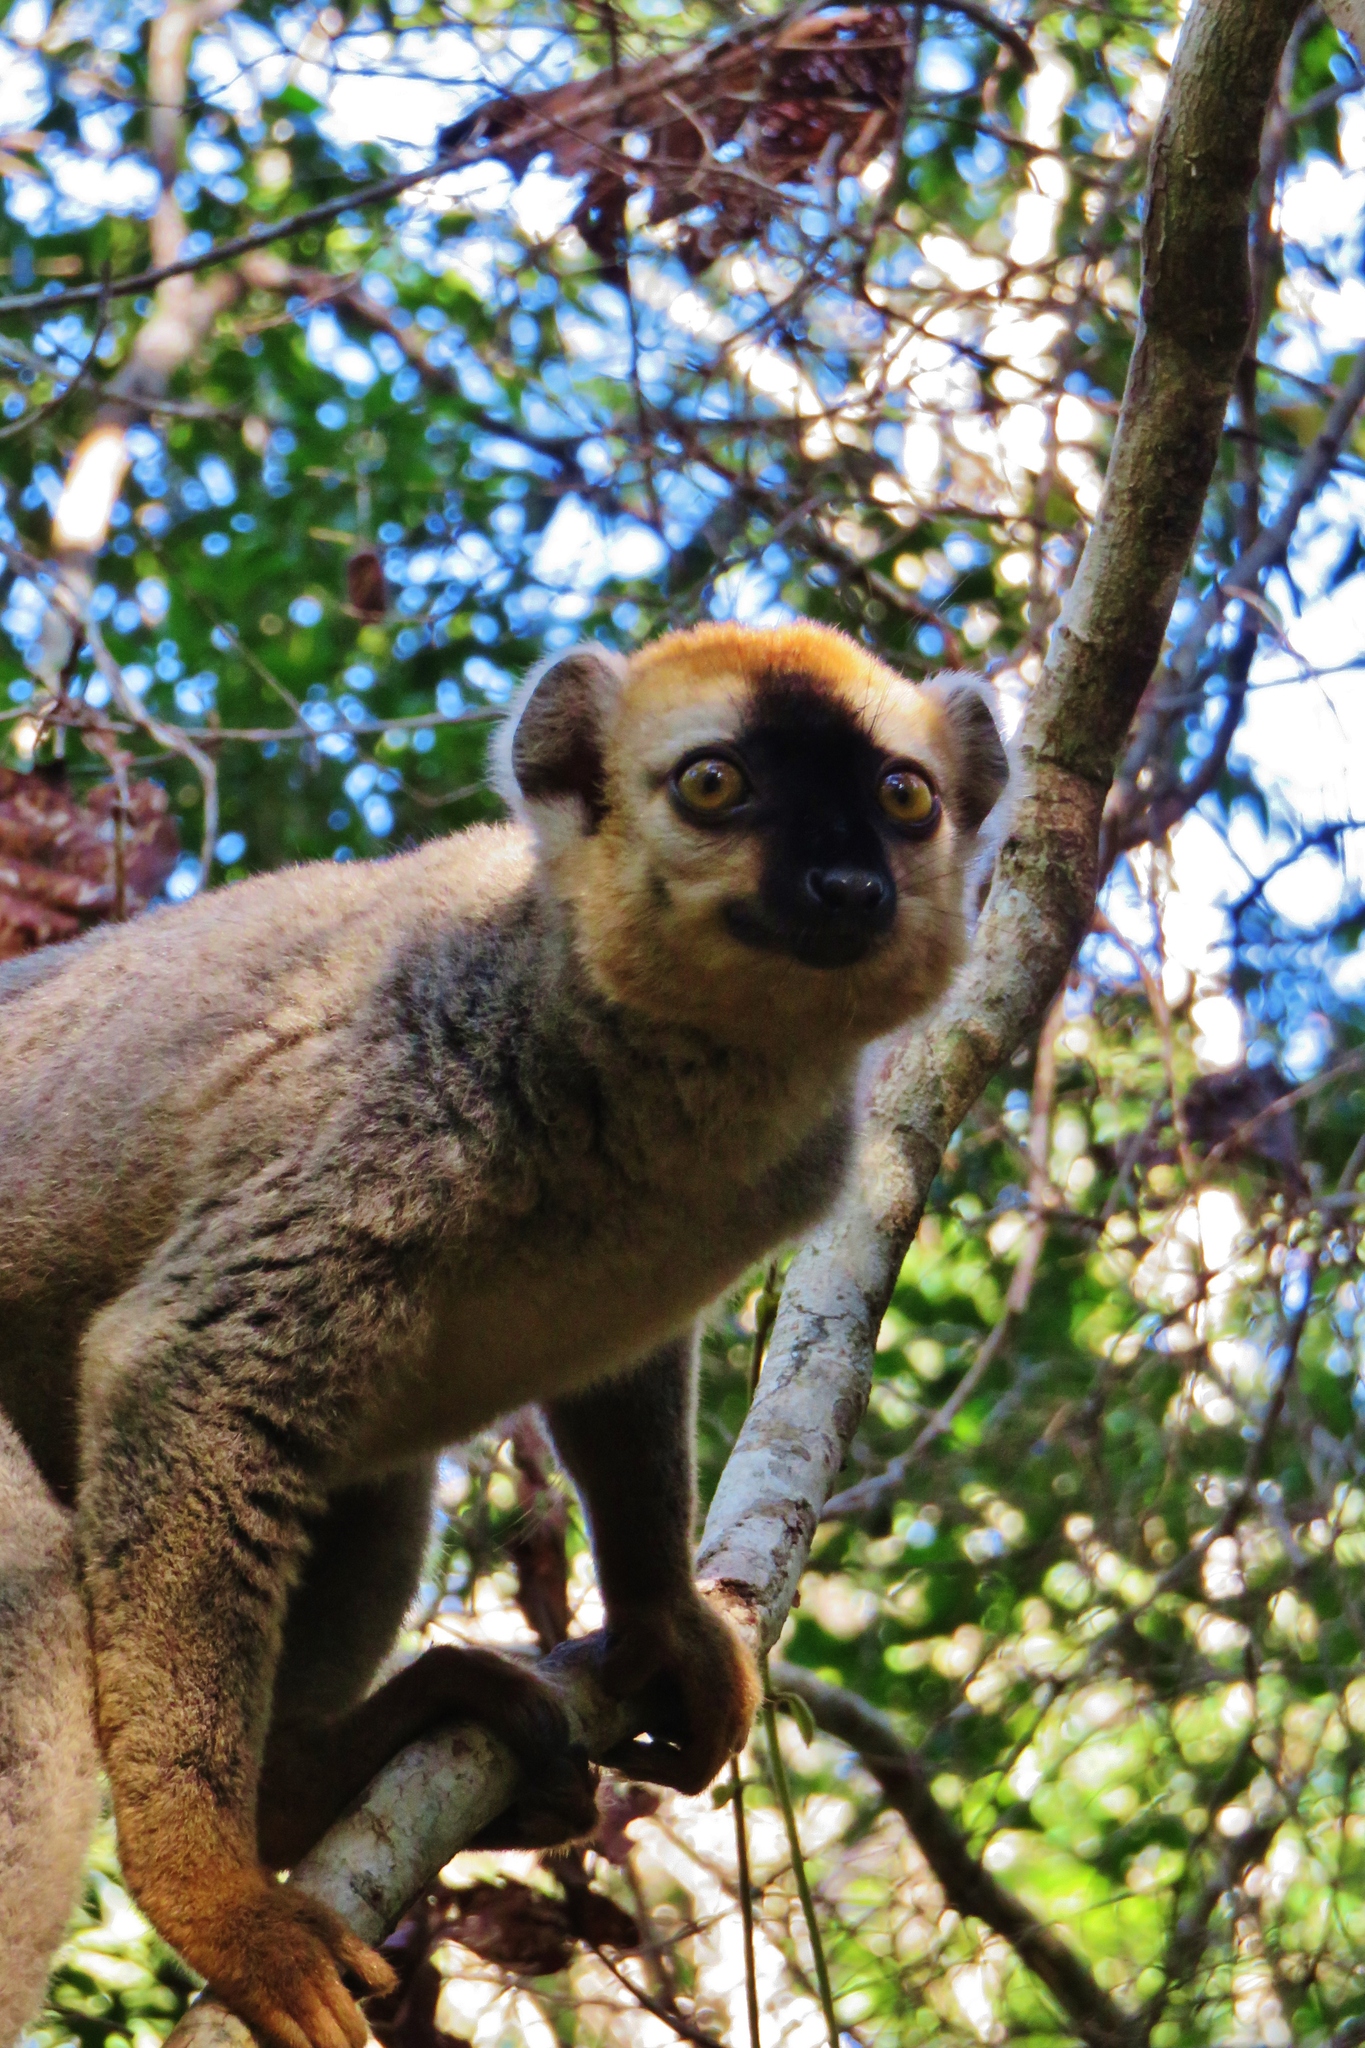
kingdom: Animalia
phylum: Chordata
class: Mammalia
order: Primates
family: Lemuridae
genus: Eulemur
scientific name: Eulemur rufifrons
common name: Red-fronted brown lemur
